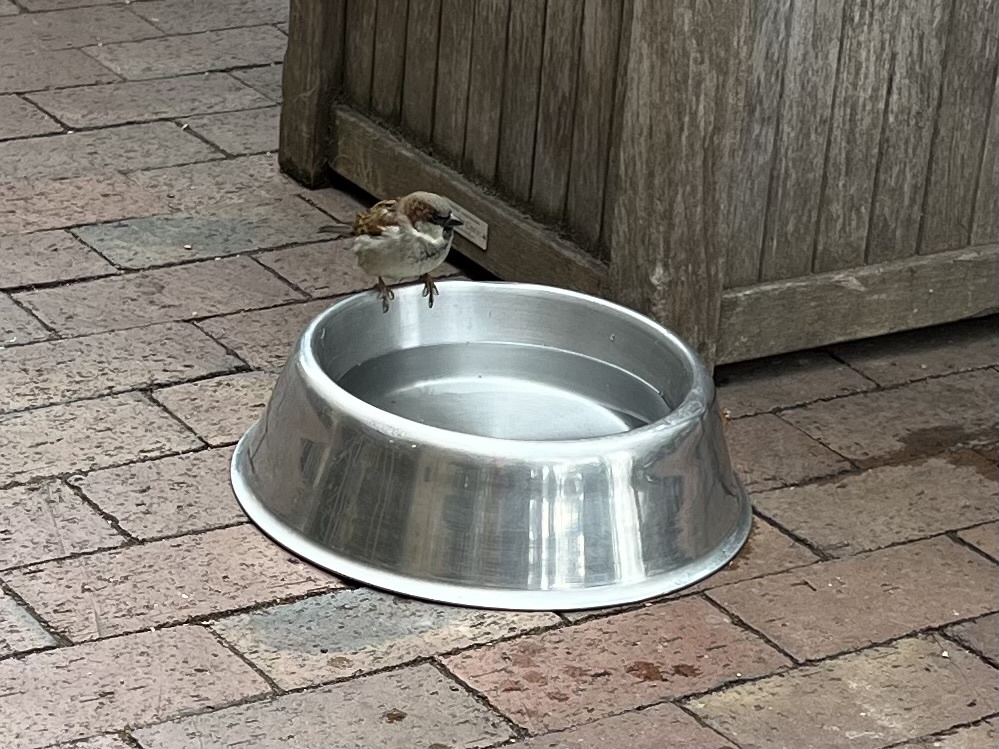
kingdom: Animalia
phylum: Chordata
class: Aves
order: Passeriformes
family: Passeridae
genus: Passer
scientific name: Passer domesticus
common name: House sparrow
